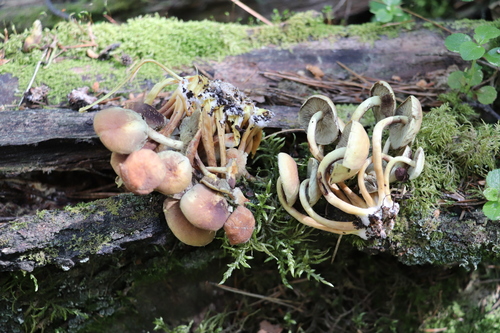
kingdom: Fungi
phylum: Basidiomycota
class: Agaricomycetes
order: Agaricales
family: Strophariaceae
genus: Hypholoma
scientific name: Hypholoma fasciculare
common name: Sulphur tuft
